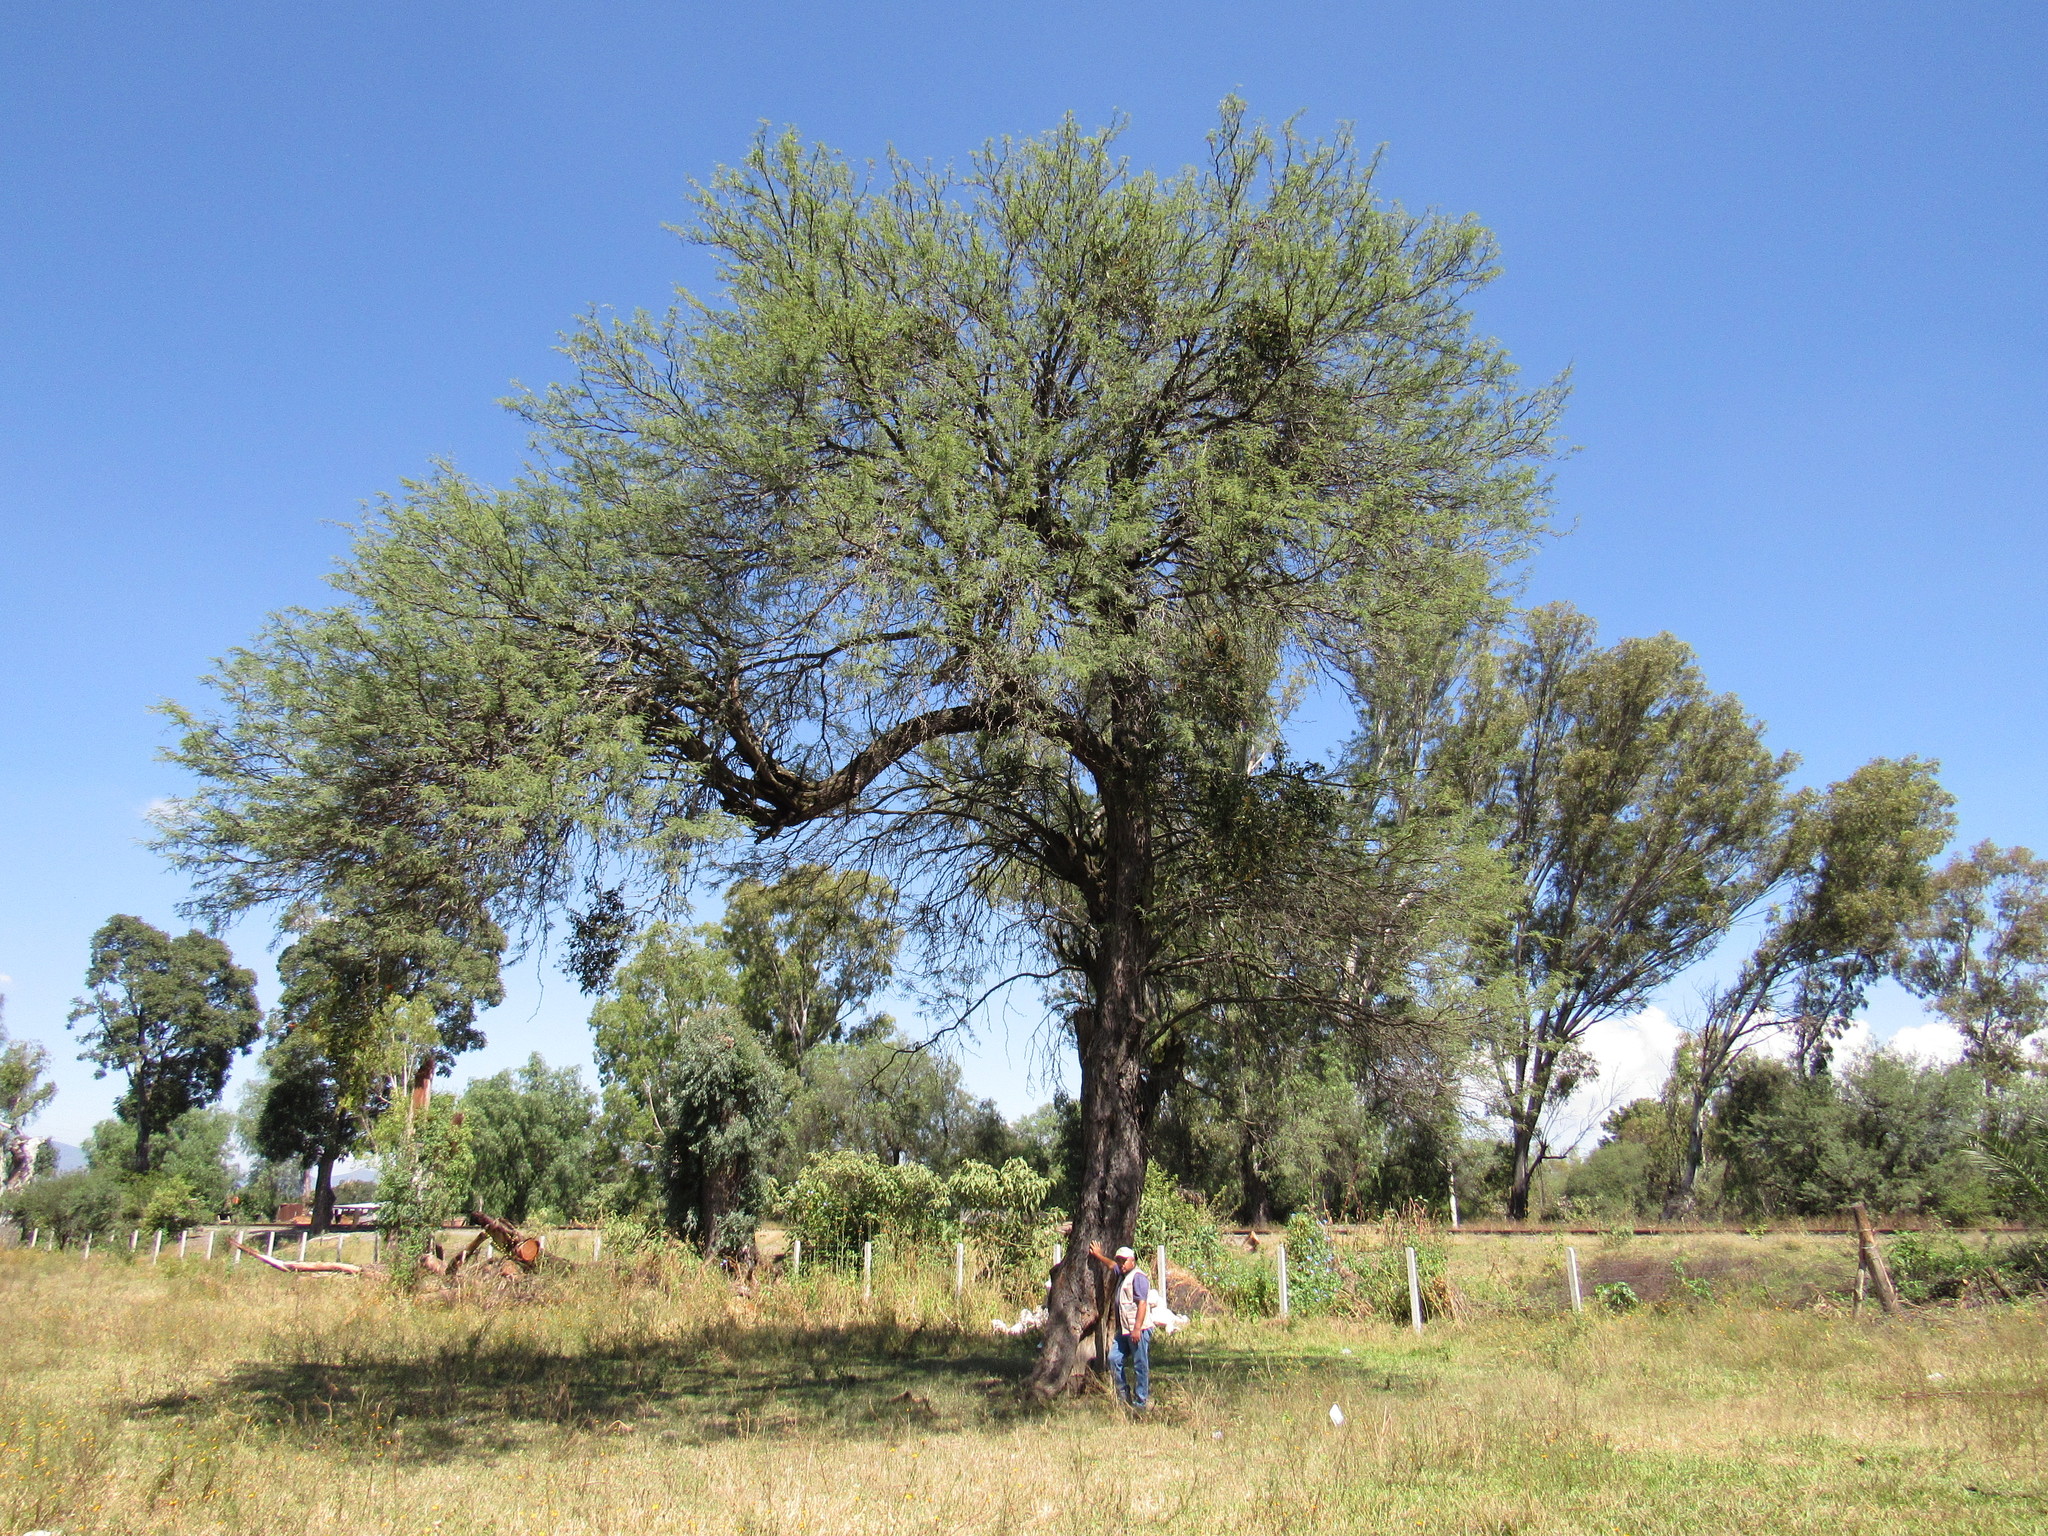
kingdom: Plantae
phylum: Tracheophyta
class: Magnoliopsida
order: Fabales
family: Fabaceae
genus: Prosopis
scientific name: Prosopis laevigata
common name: Smooth mesquite
